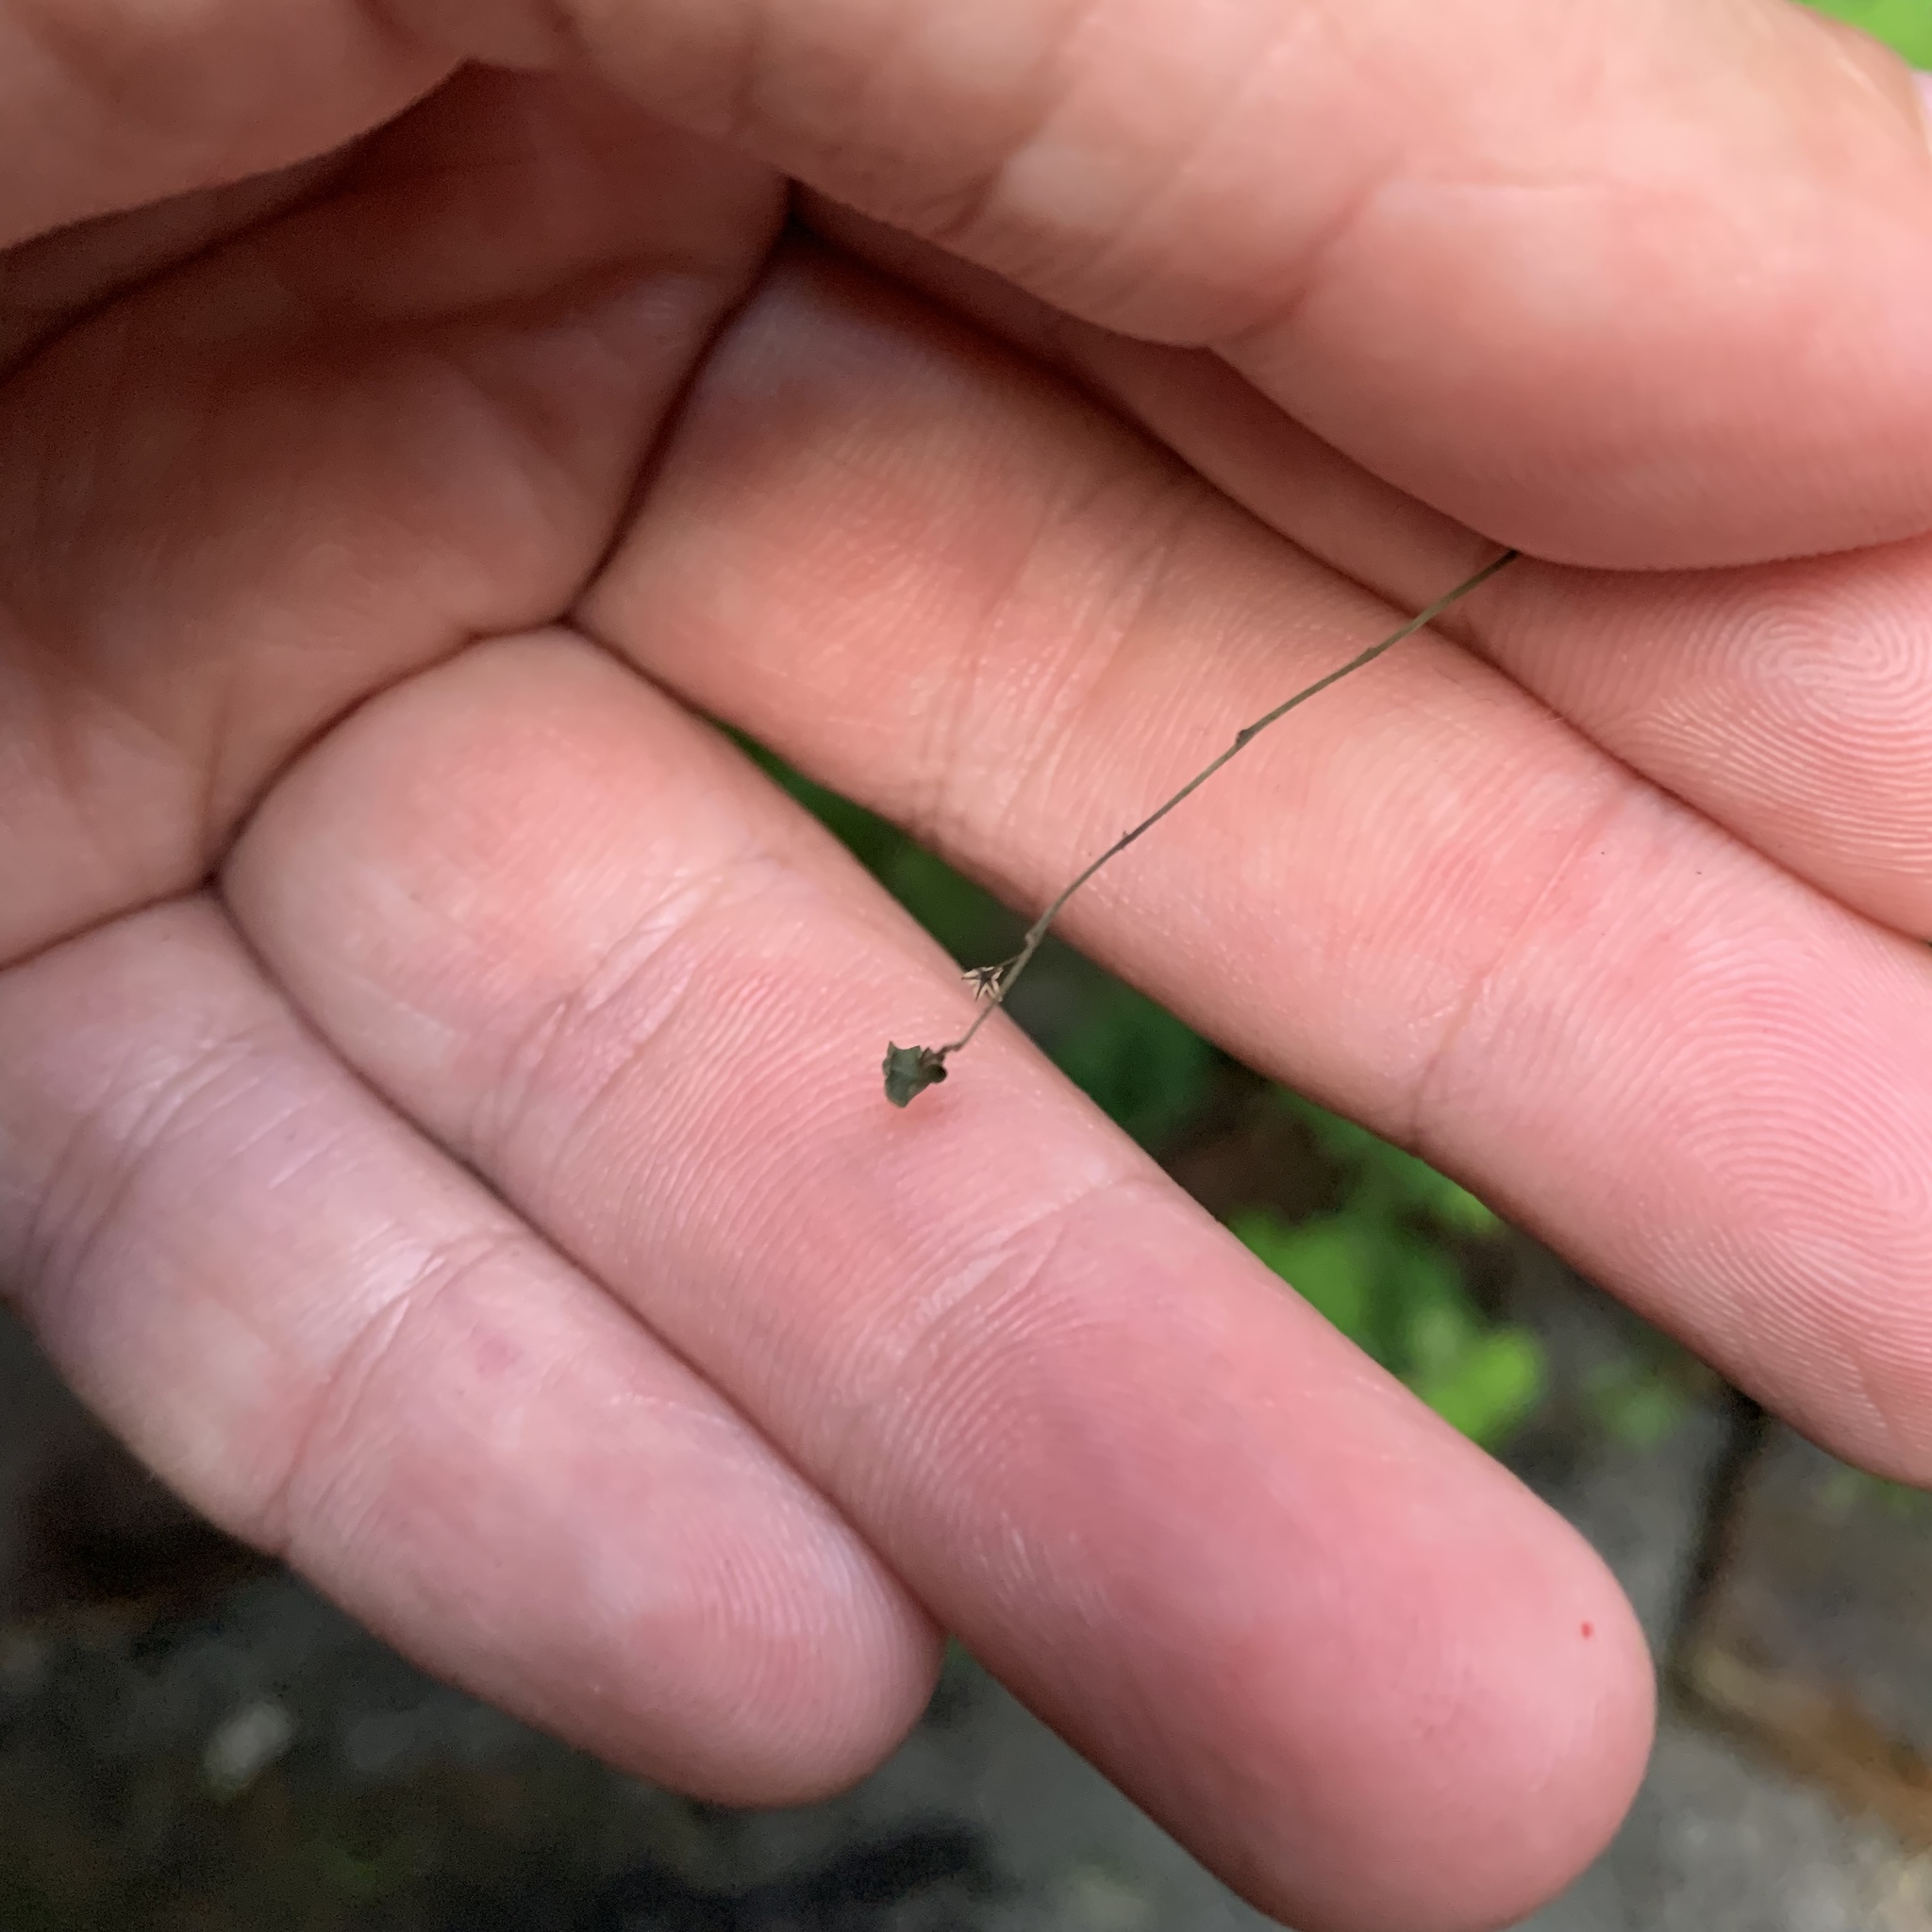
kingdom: Plantae
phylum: Tracheophyta
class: Magnoliopsida
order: Malpighiales
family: Phyllanthaceae
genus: Phyllanthus
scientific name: Phyllanthus tenellus
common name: Mascarene island leaf-flower
